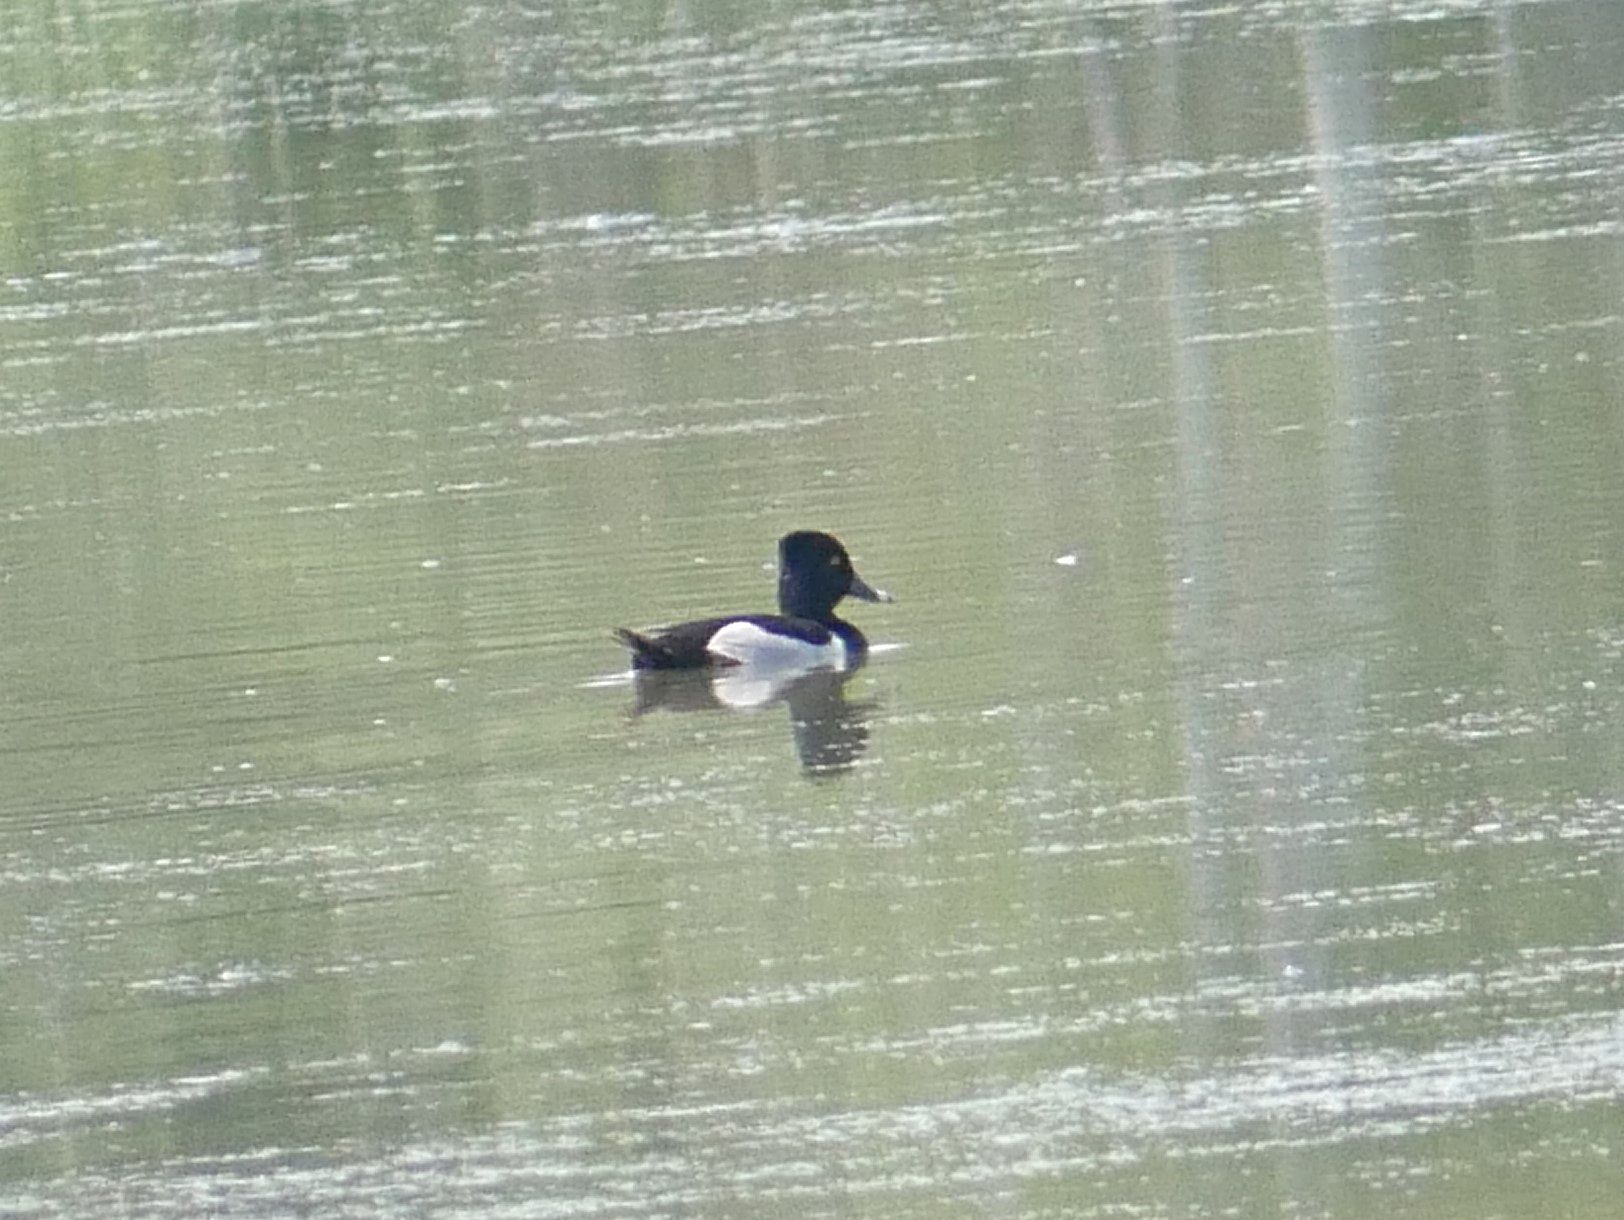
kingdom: Animalia
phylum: Chordata
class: Aves
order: Anseriformes
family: Anatidae
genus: Aythya
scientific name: Aythya collaris
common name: Ring-necked duck
